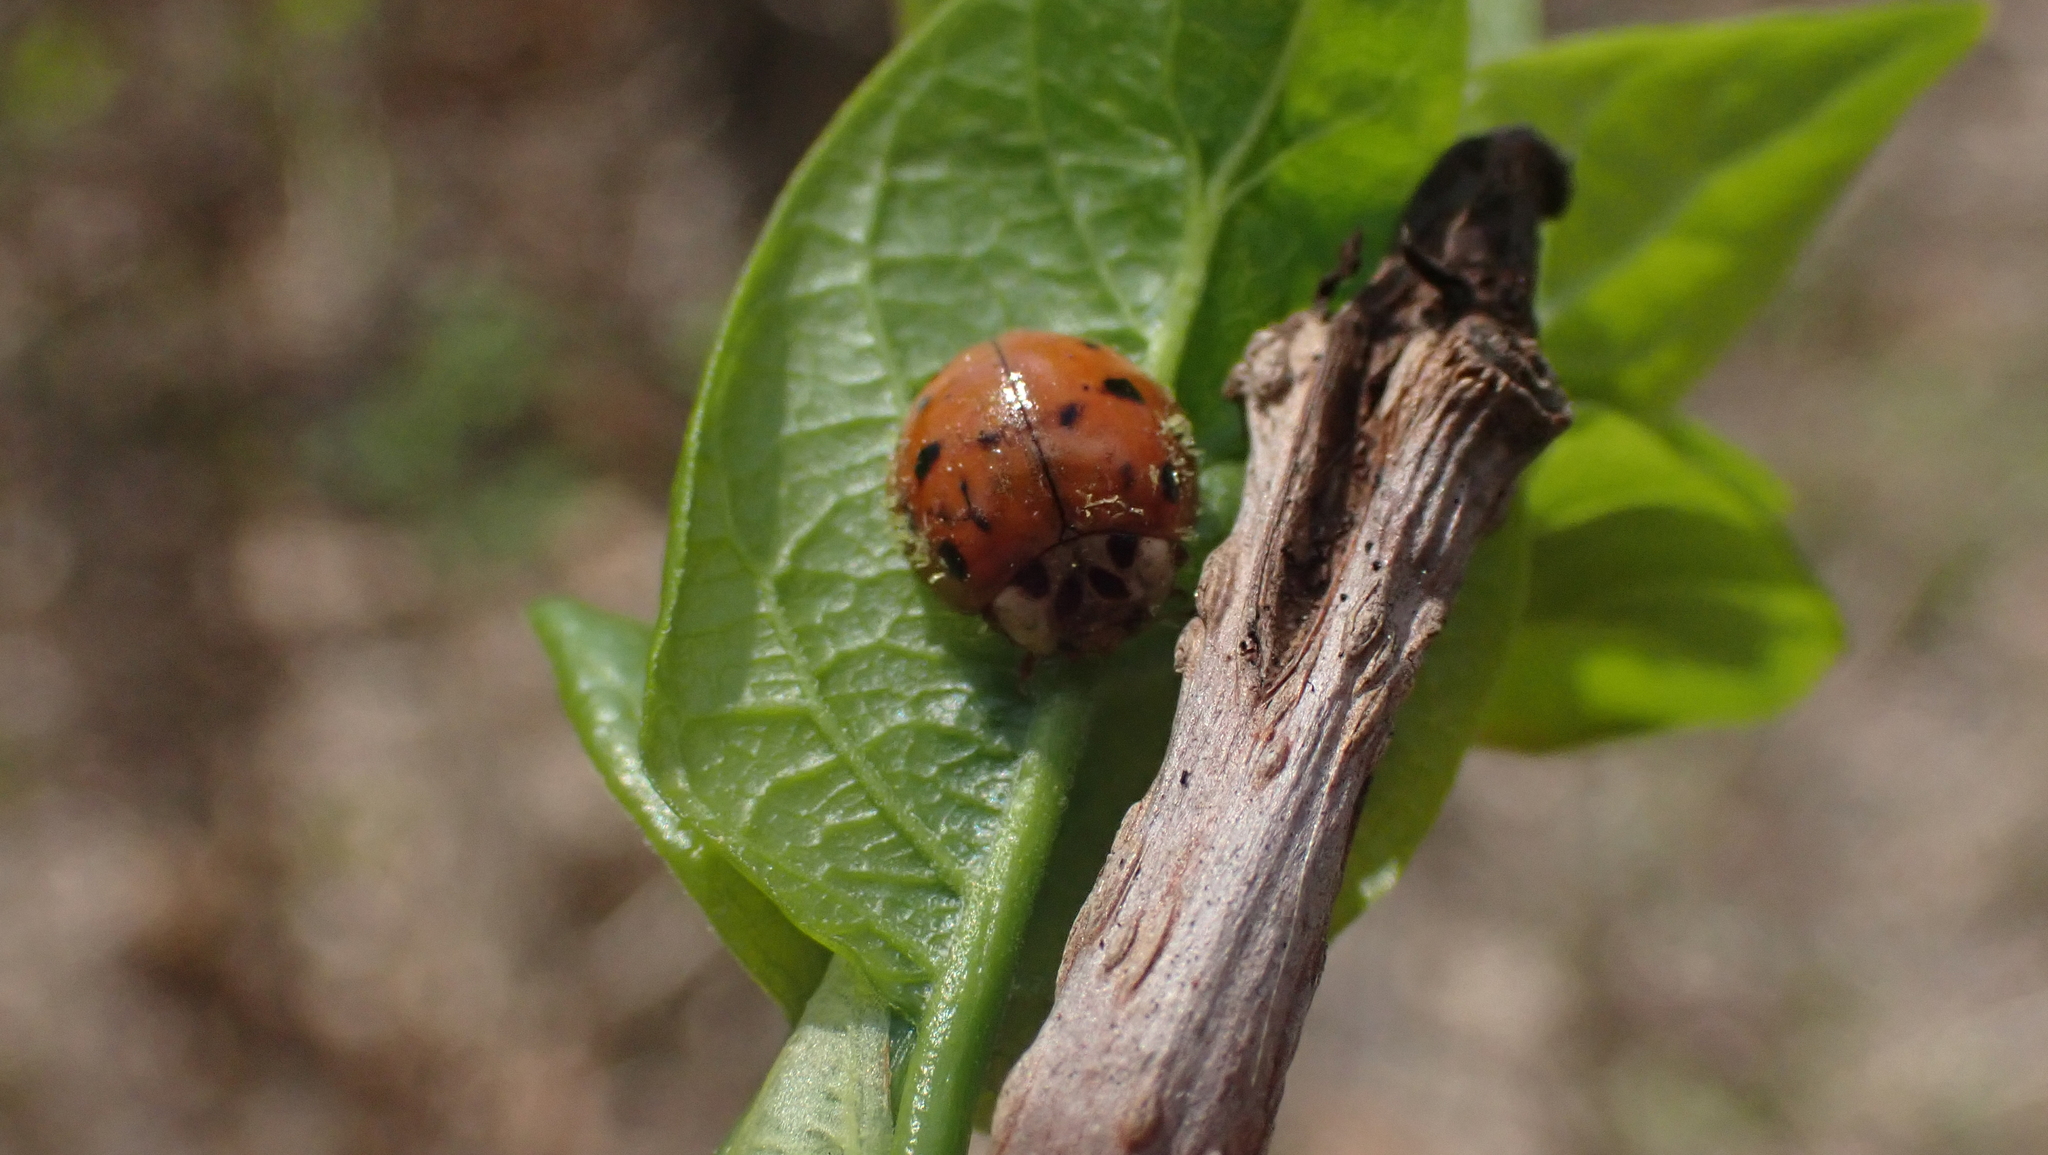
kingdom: Animalia
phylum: Arthropoda
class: Insecta
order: Coleoptera
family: Coccinellidae
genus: Harmonia
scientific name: Harmonia axyridis
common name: Harlequin ladybird
